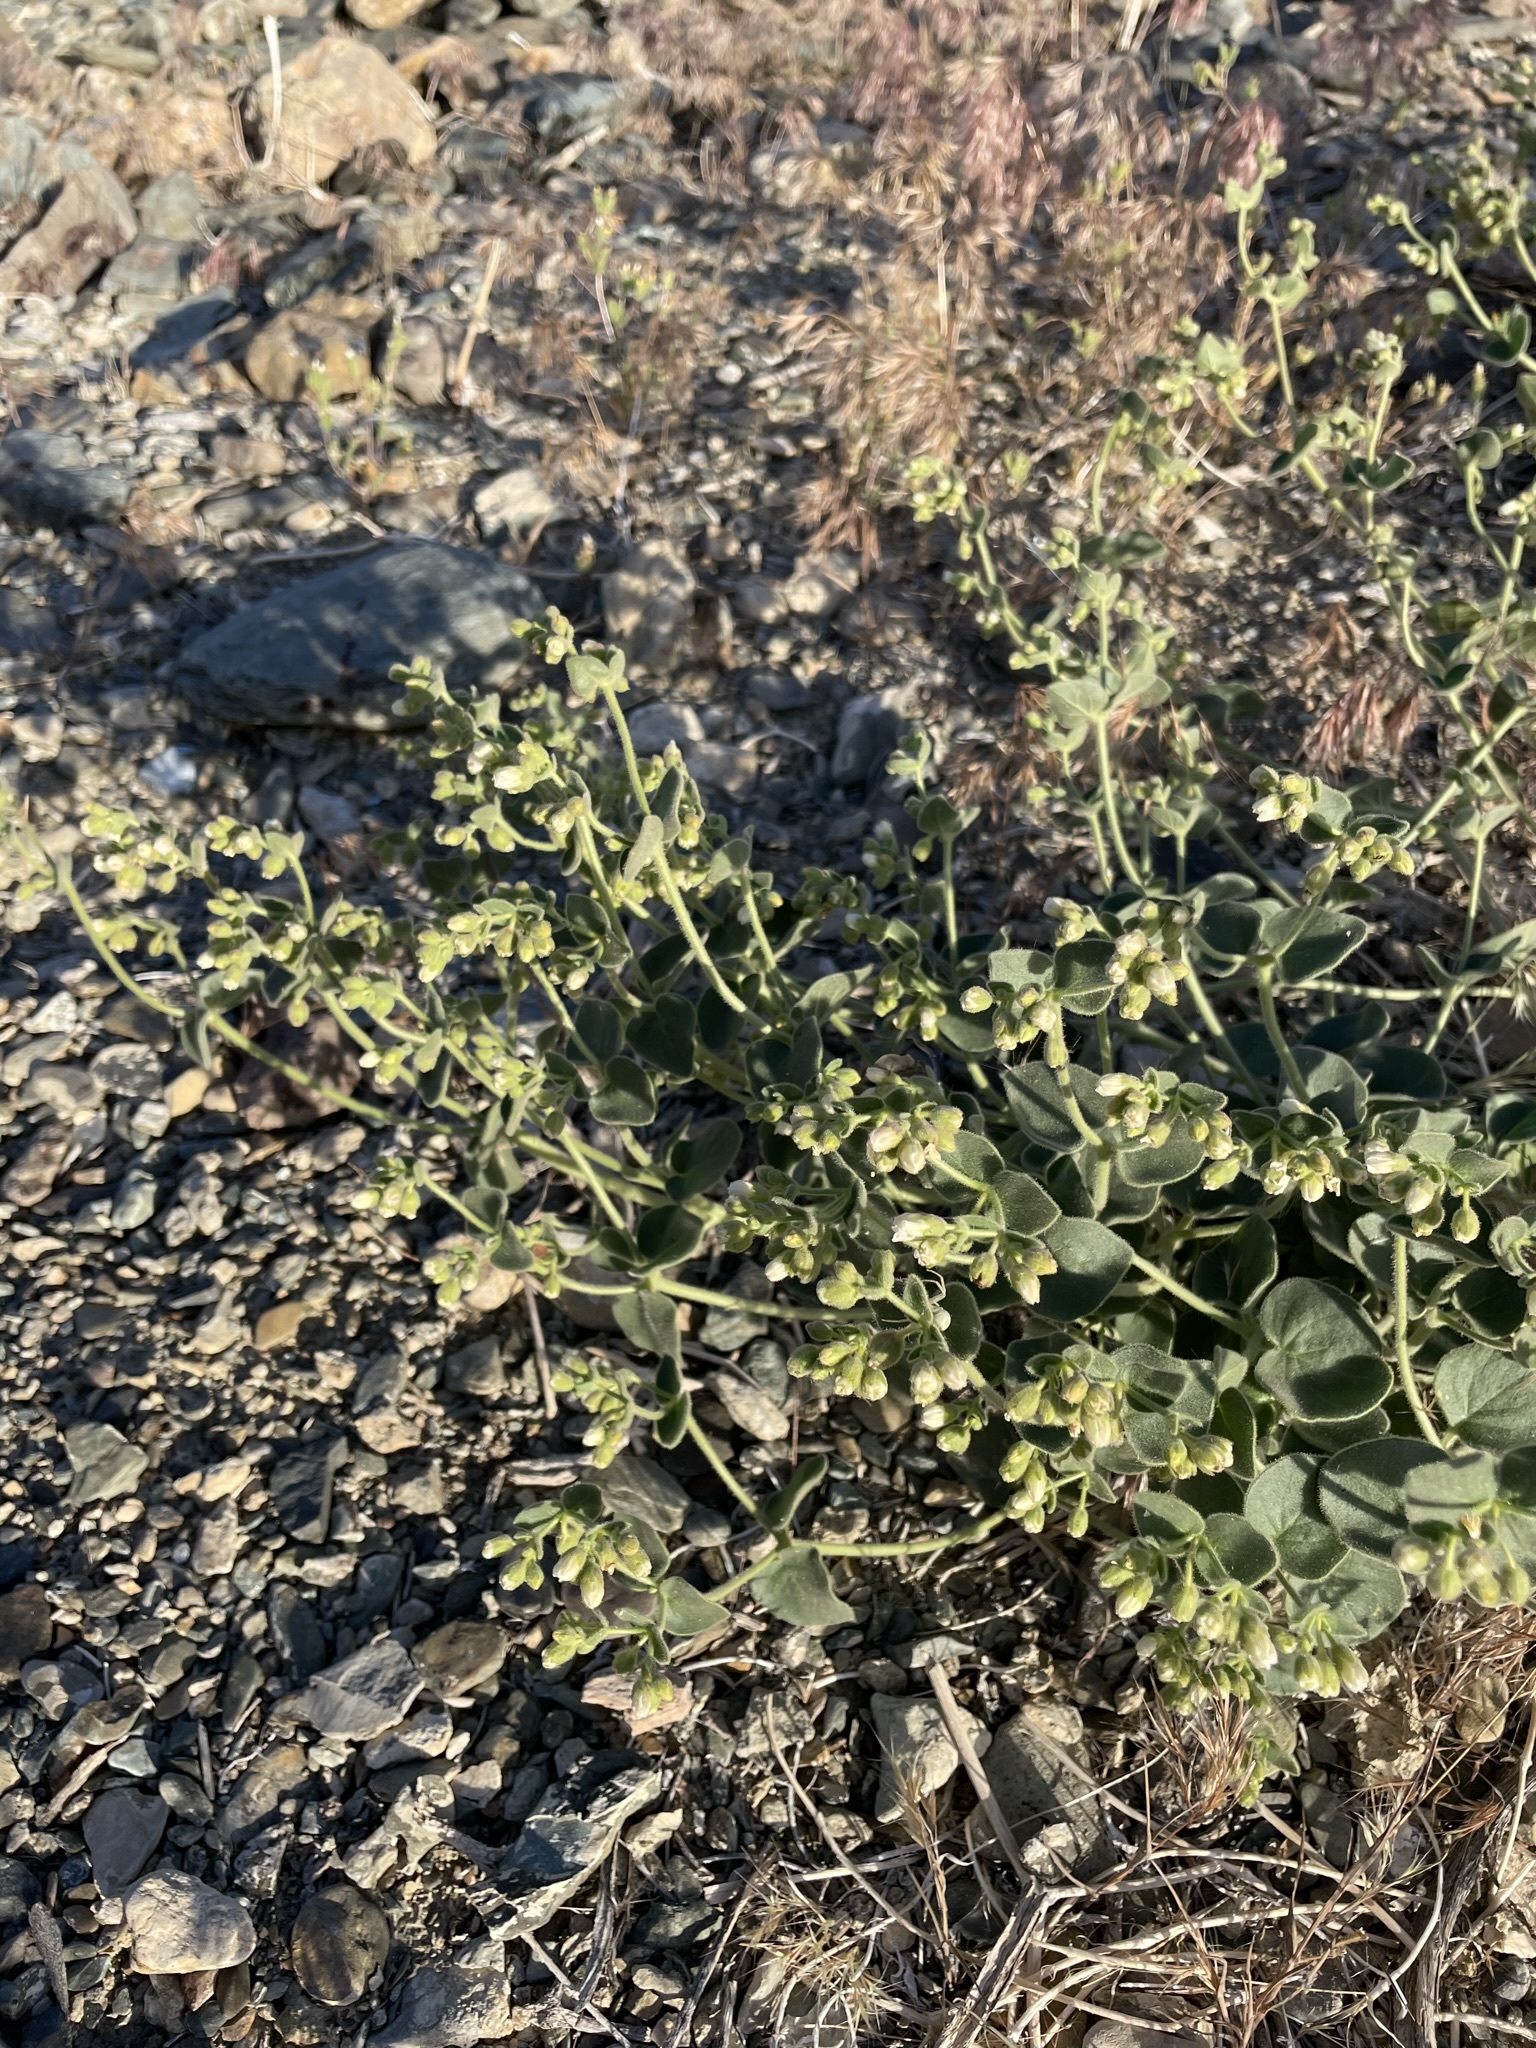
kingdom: Plantae
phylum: Tracheophyta
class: Magnoliopsida
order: Caryophyllales
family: Nyctaginaceae
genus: Mirabilis
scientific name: Mirabilis laevis
